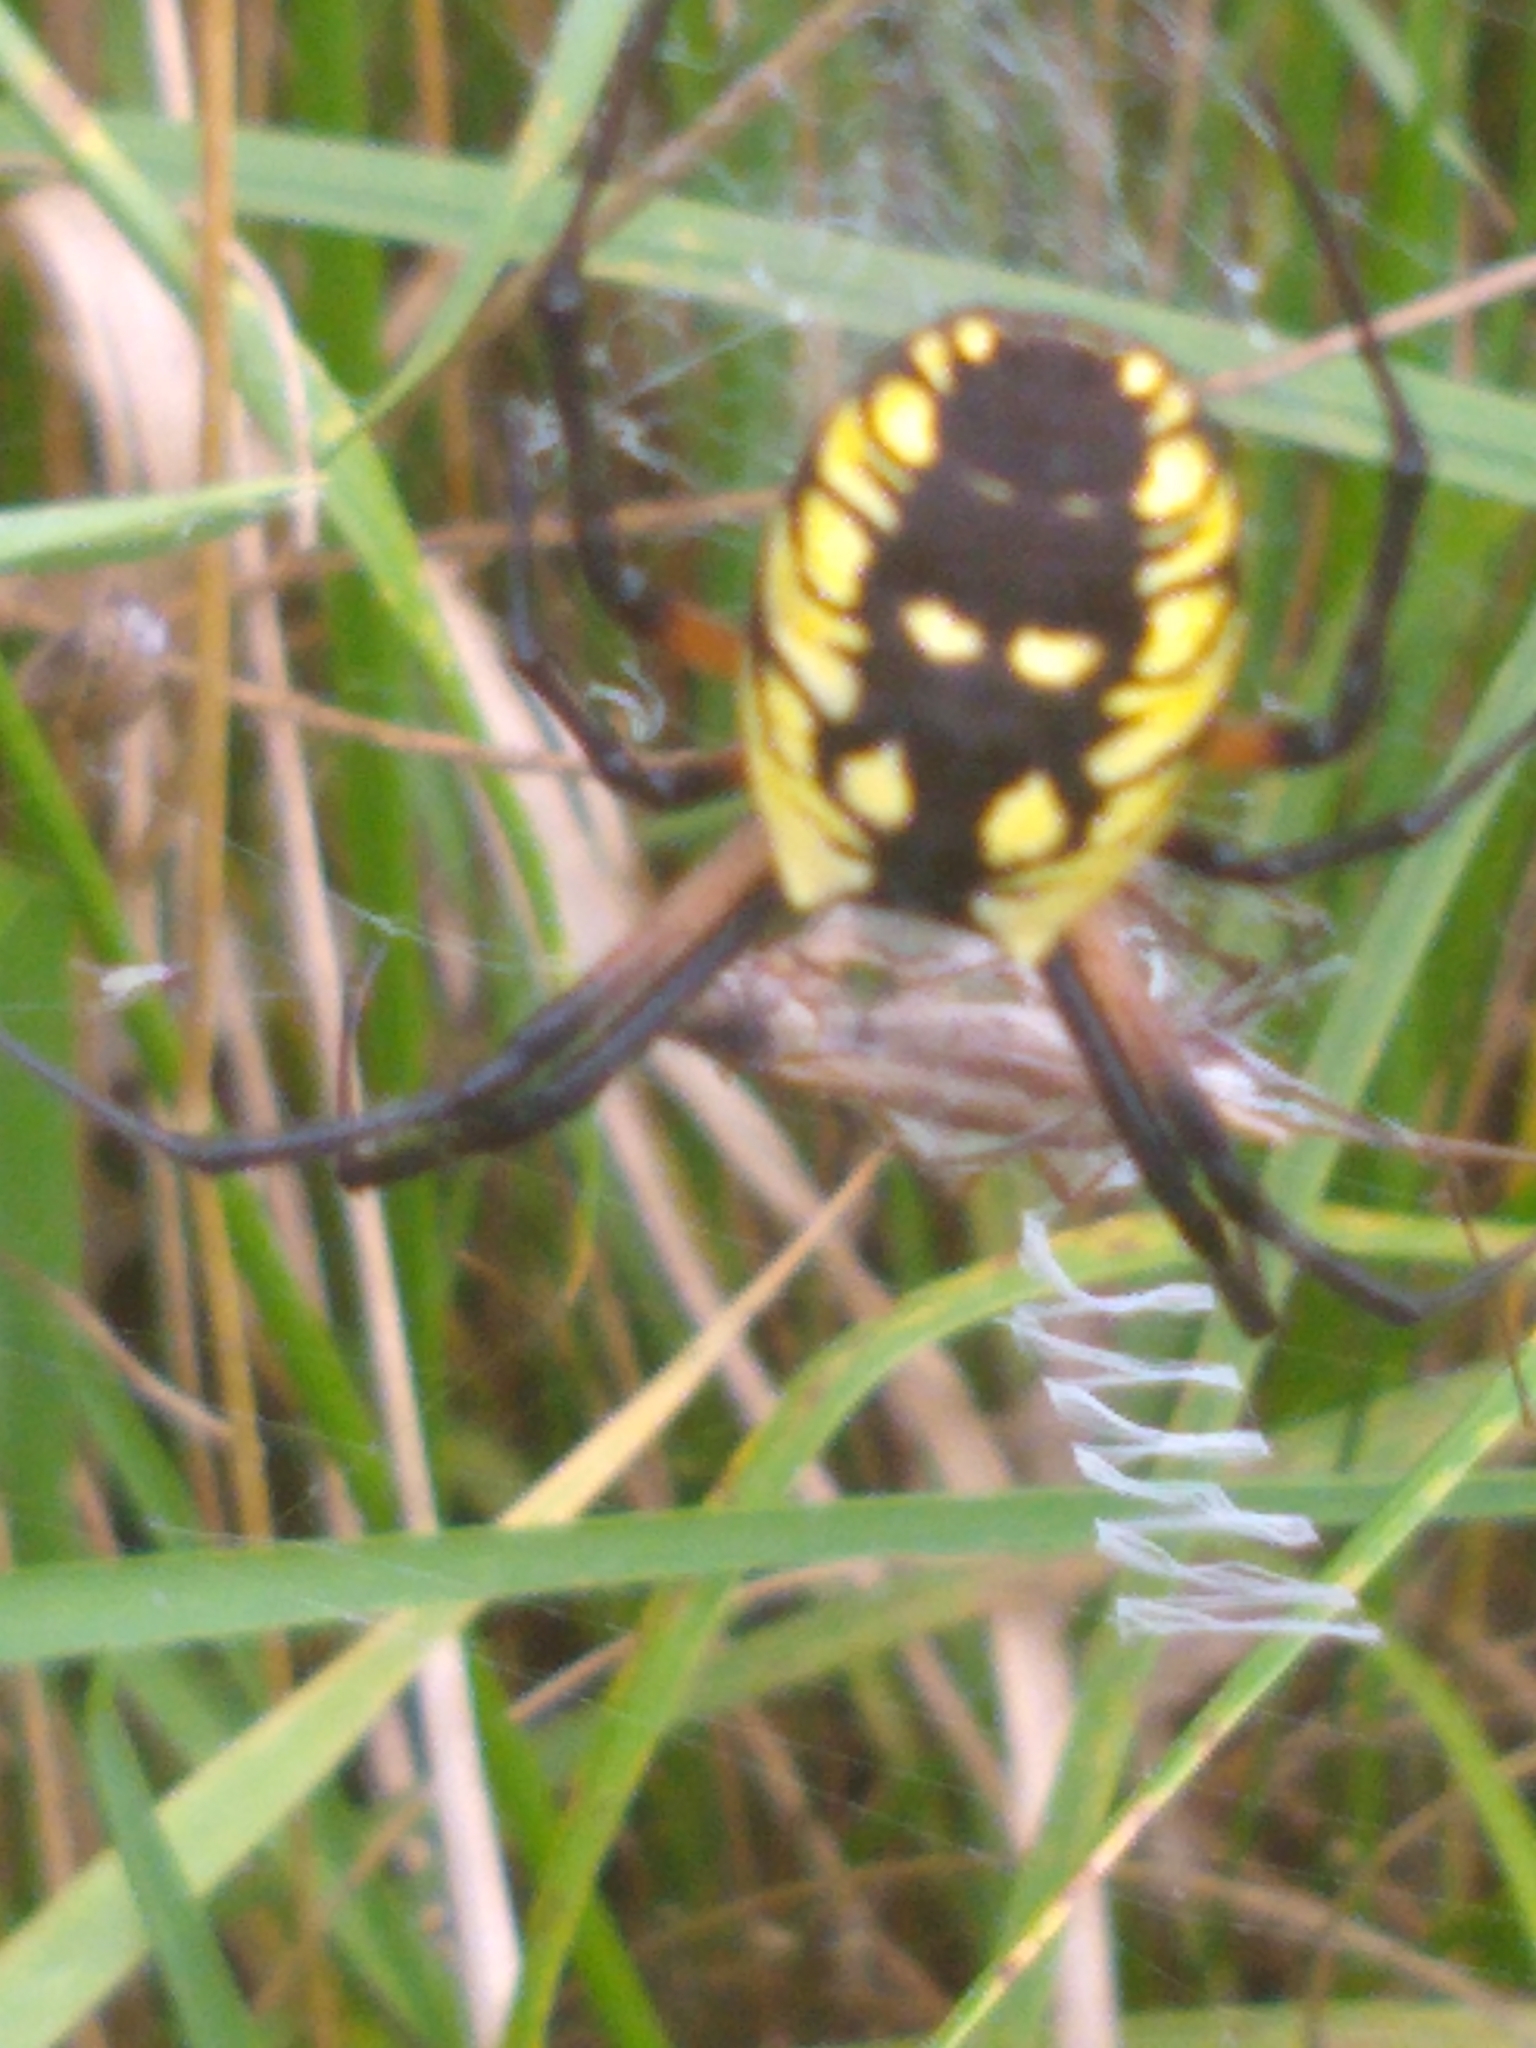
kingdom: Animalia
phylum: Arthropoda
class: Arachnida
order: Araneae
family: Araneidae
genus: Argiope
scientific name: Argiope aurantia
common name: Orb weavers
